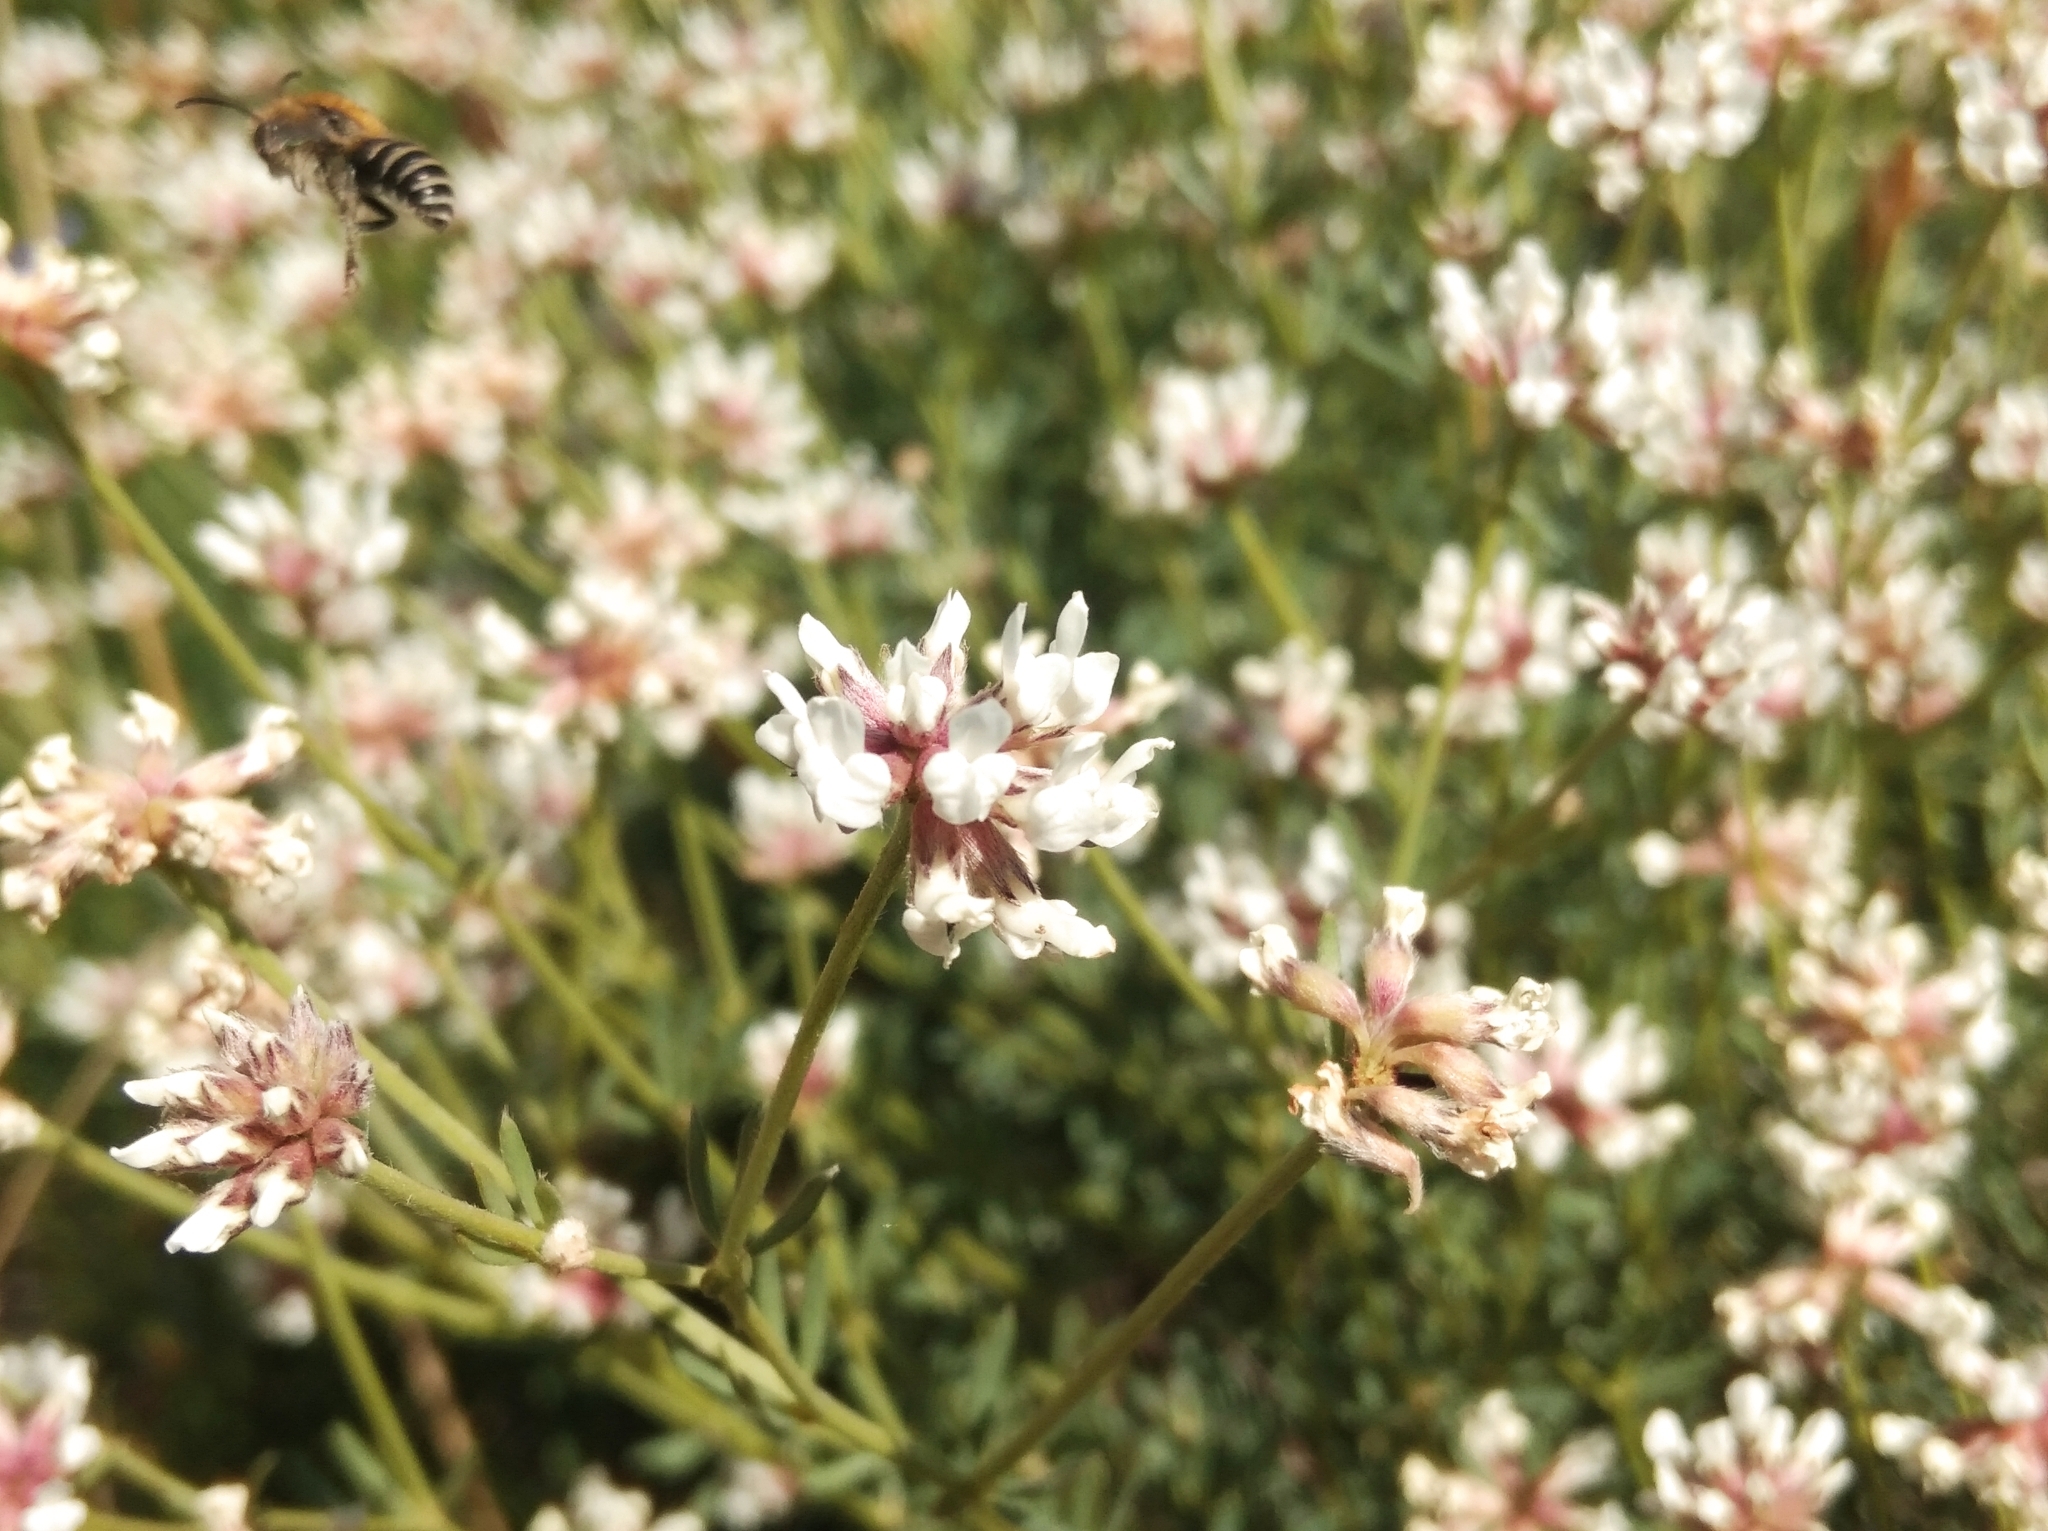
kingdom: Plantae
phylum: Tracheophyta
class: Magnoliopsida
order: Fabales
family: Fabaceae
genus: Lotus
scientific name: Lotus dorycnium
